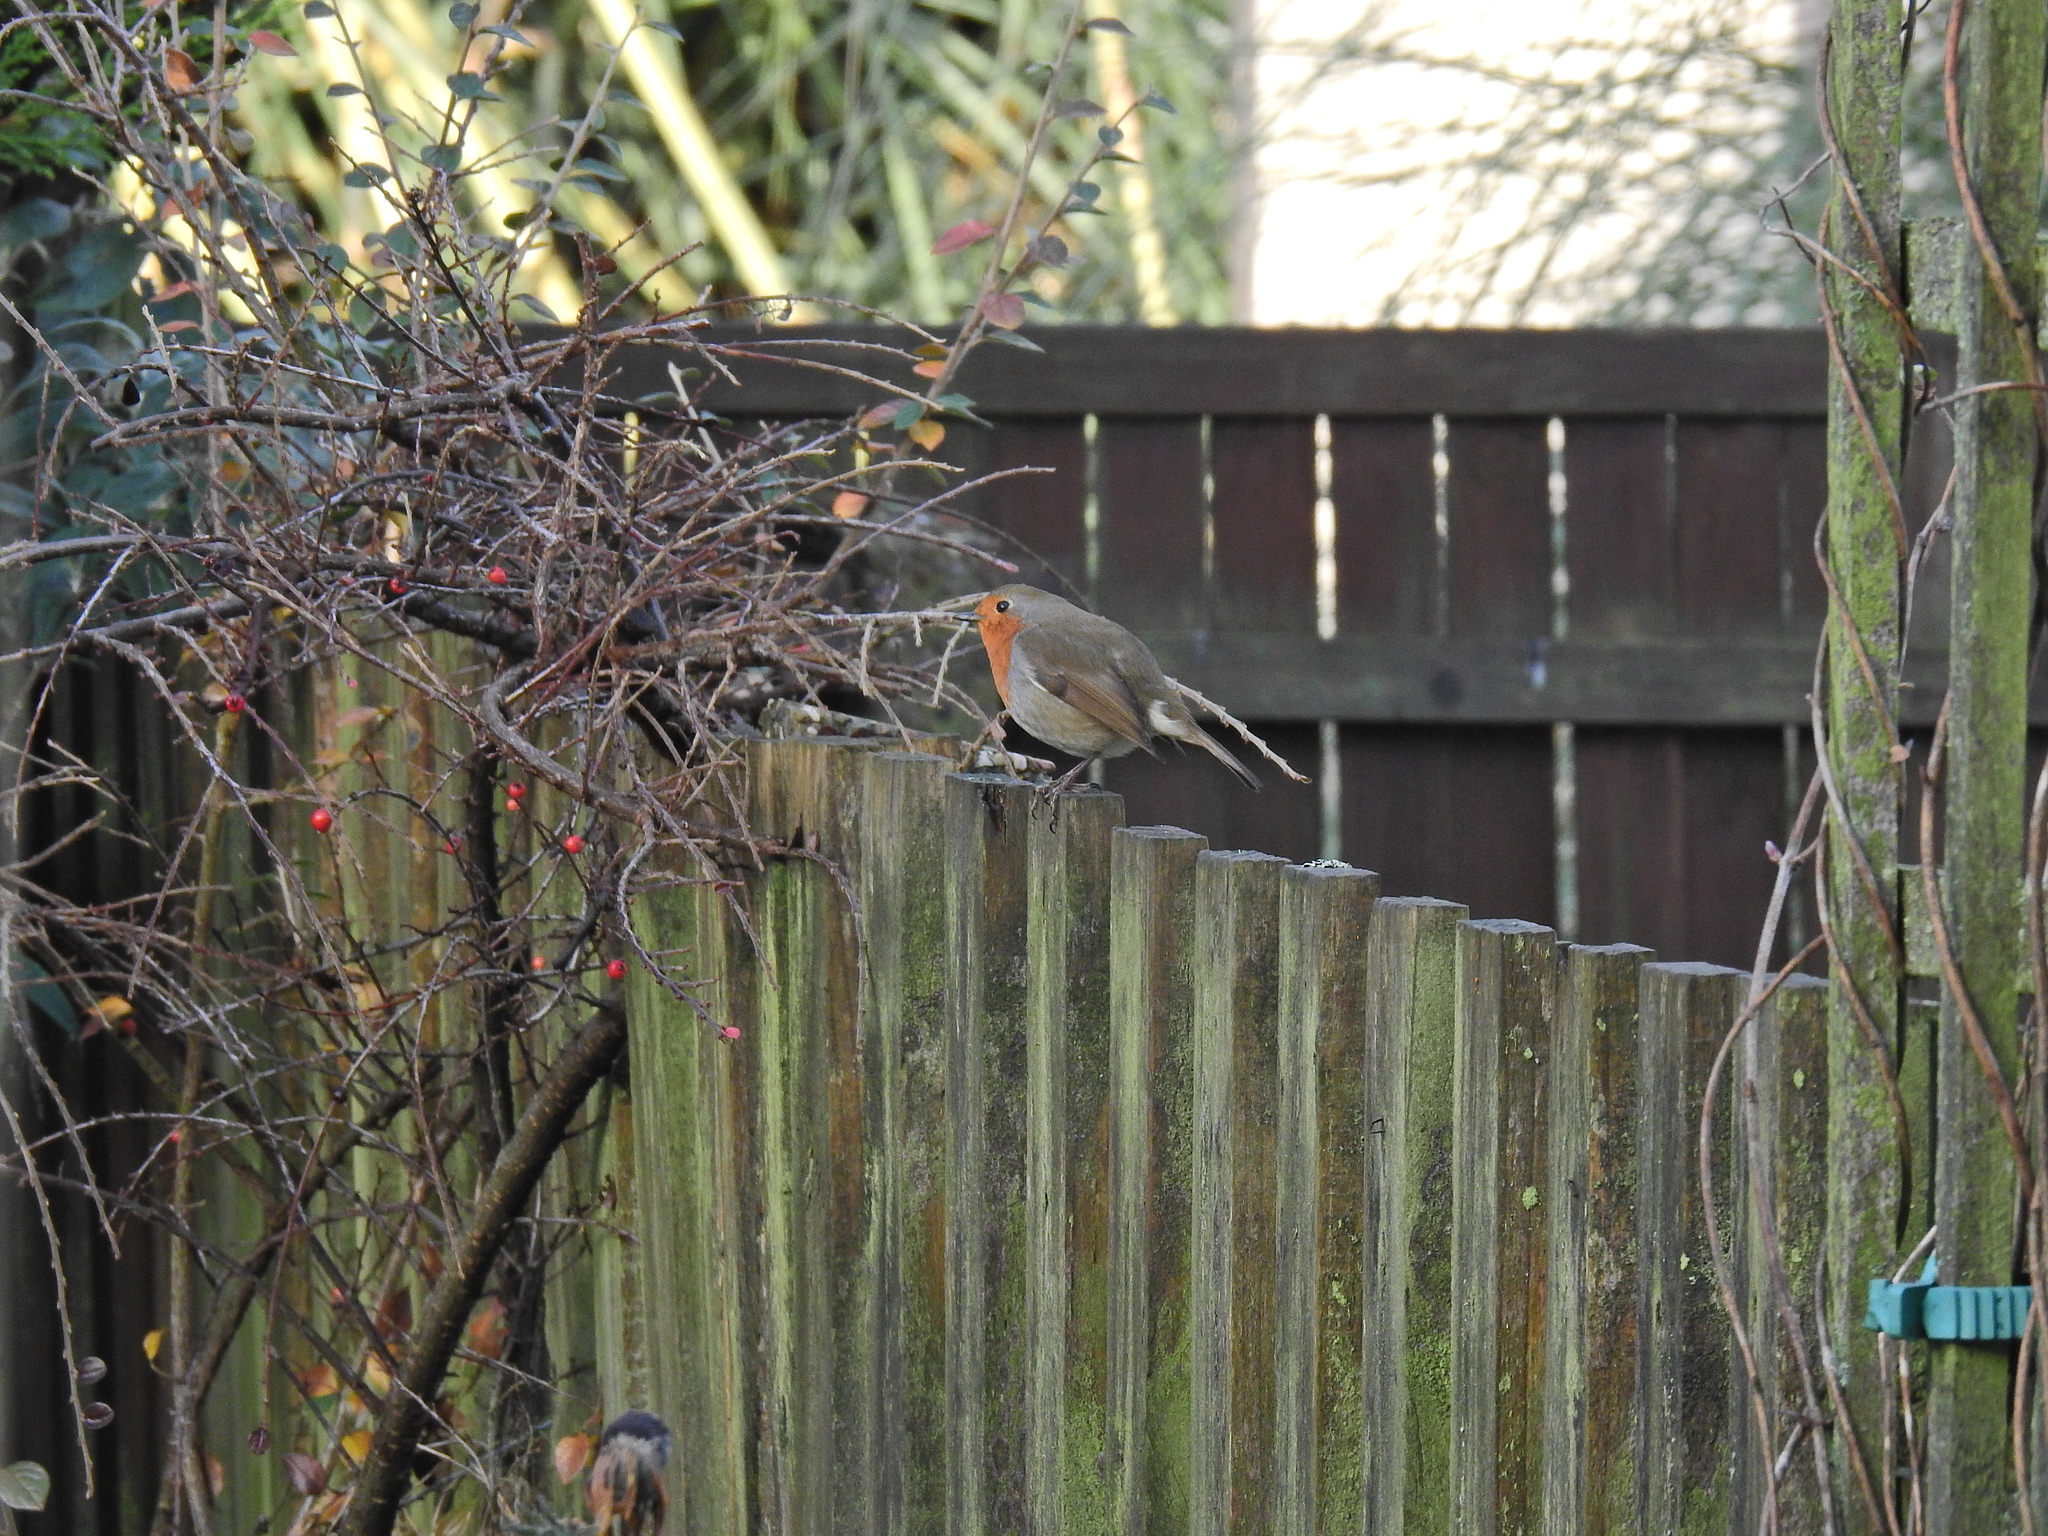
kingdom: Animalia
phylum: Chordata
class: Aves
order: Passeriformes
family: Muscicapidae
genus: Erithacus
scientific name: Erithacus rubecula
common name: European robin
